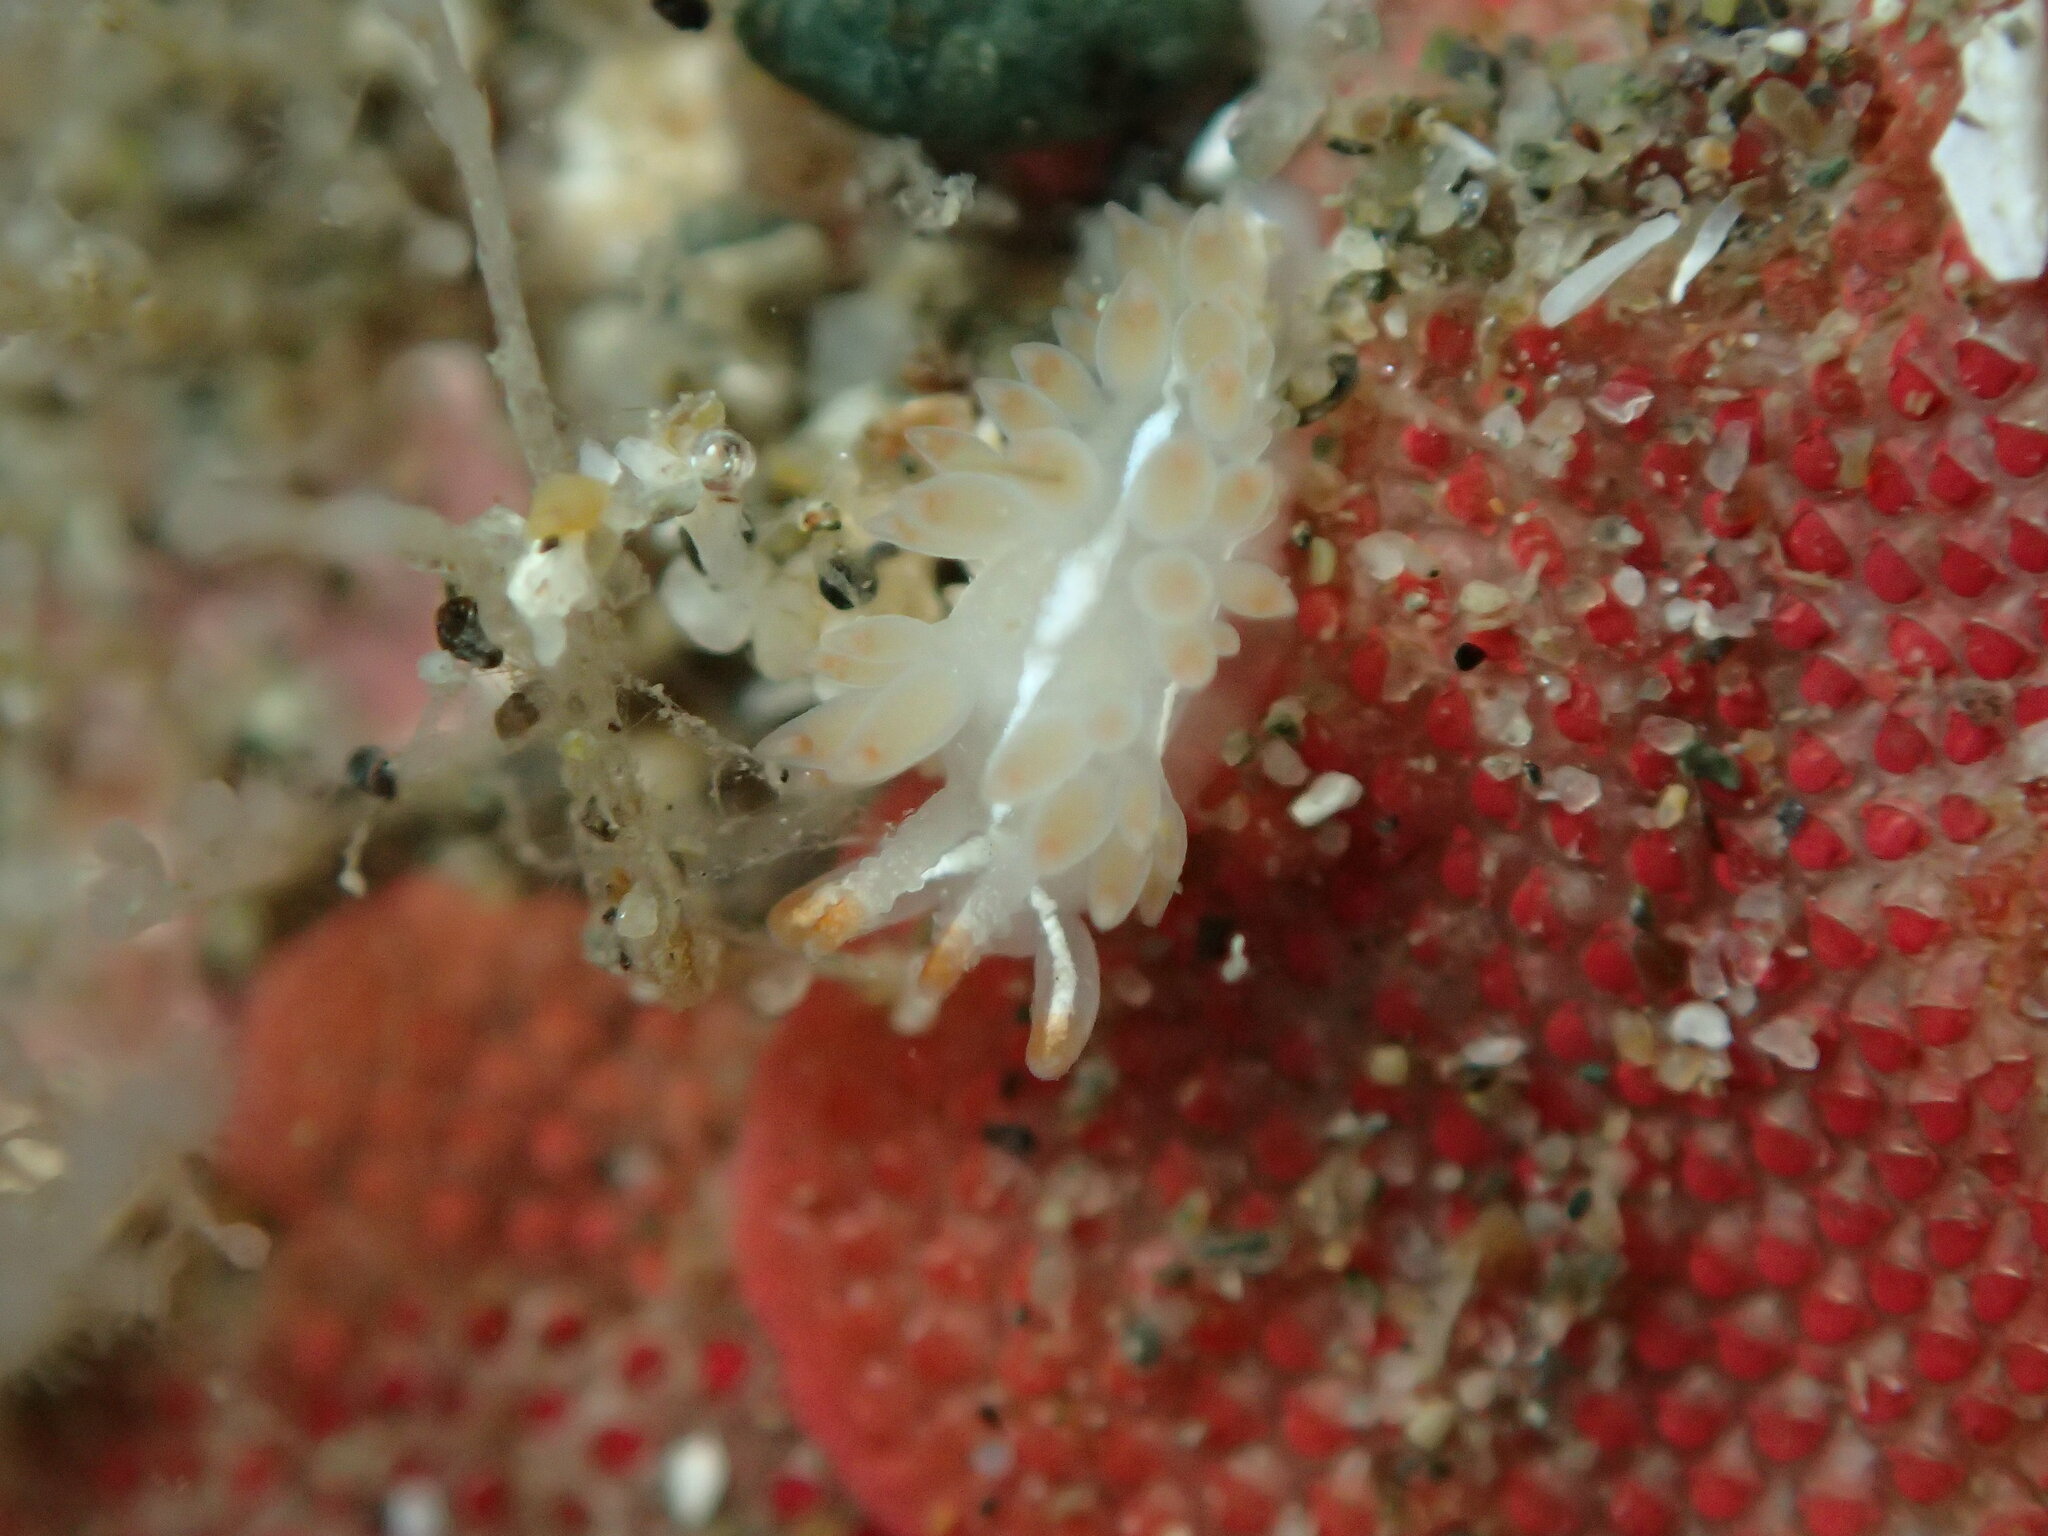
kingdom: Animalia
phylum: Mollusca
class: Gastropoda
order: Nudibranchia
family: Coryphellidae
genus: Coryphella
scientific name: Coryphella trilineata
